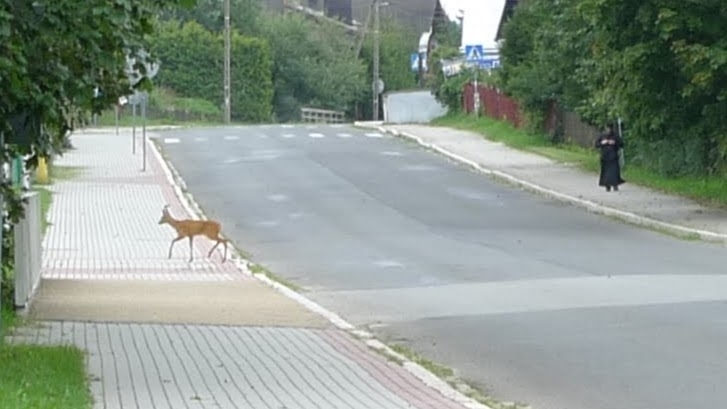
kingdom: Animalia
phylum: Chordata
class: Mammalia
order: Artiodactyla
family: Cervidae
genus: Capreolus
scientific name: Capreolus capreolus
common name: Western roe deer
